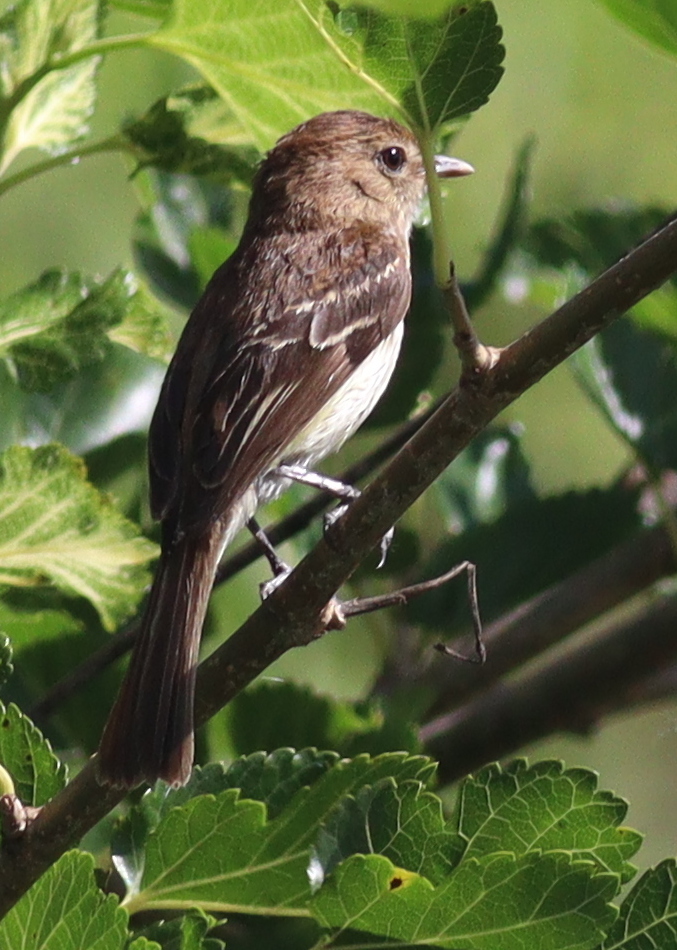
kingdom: Animalia
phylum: Chordata
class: Aves
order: Passeriformes
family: Tyrannidae
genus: Myiophobus
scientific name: Myiophobus fasciatus
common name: Bran-colored flycatcher
